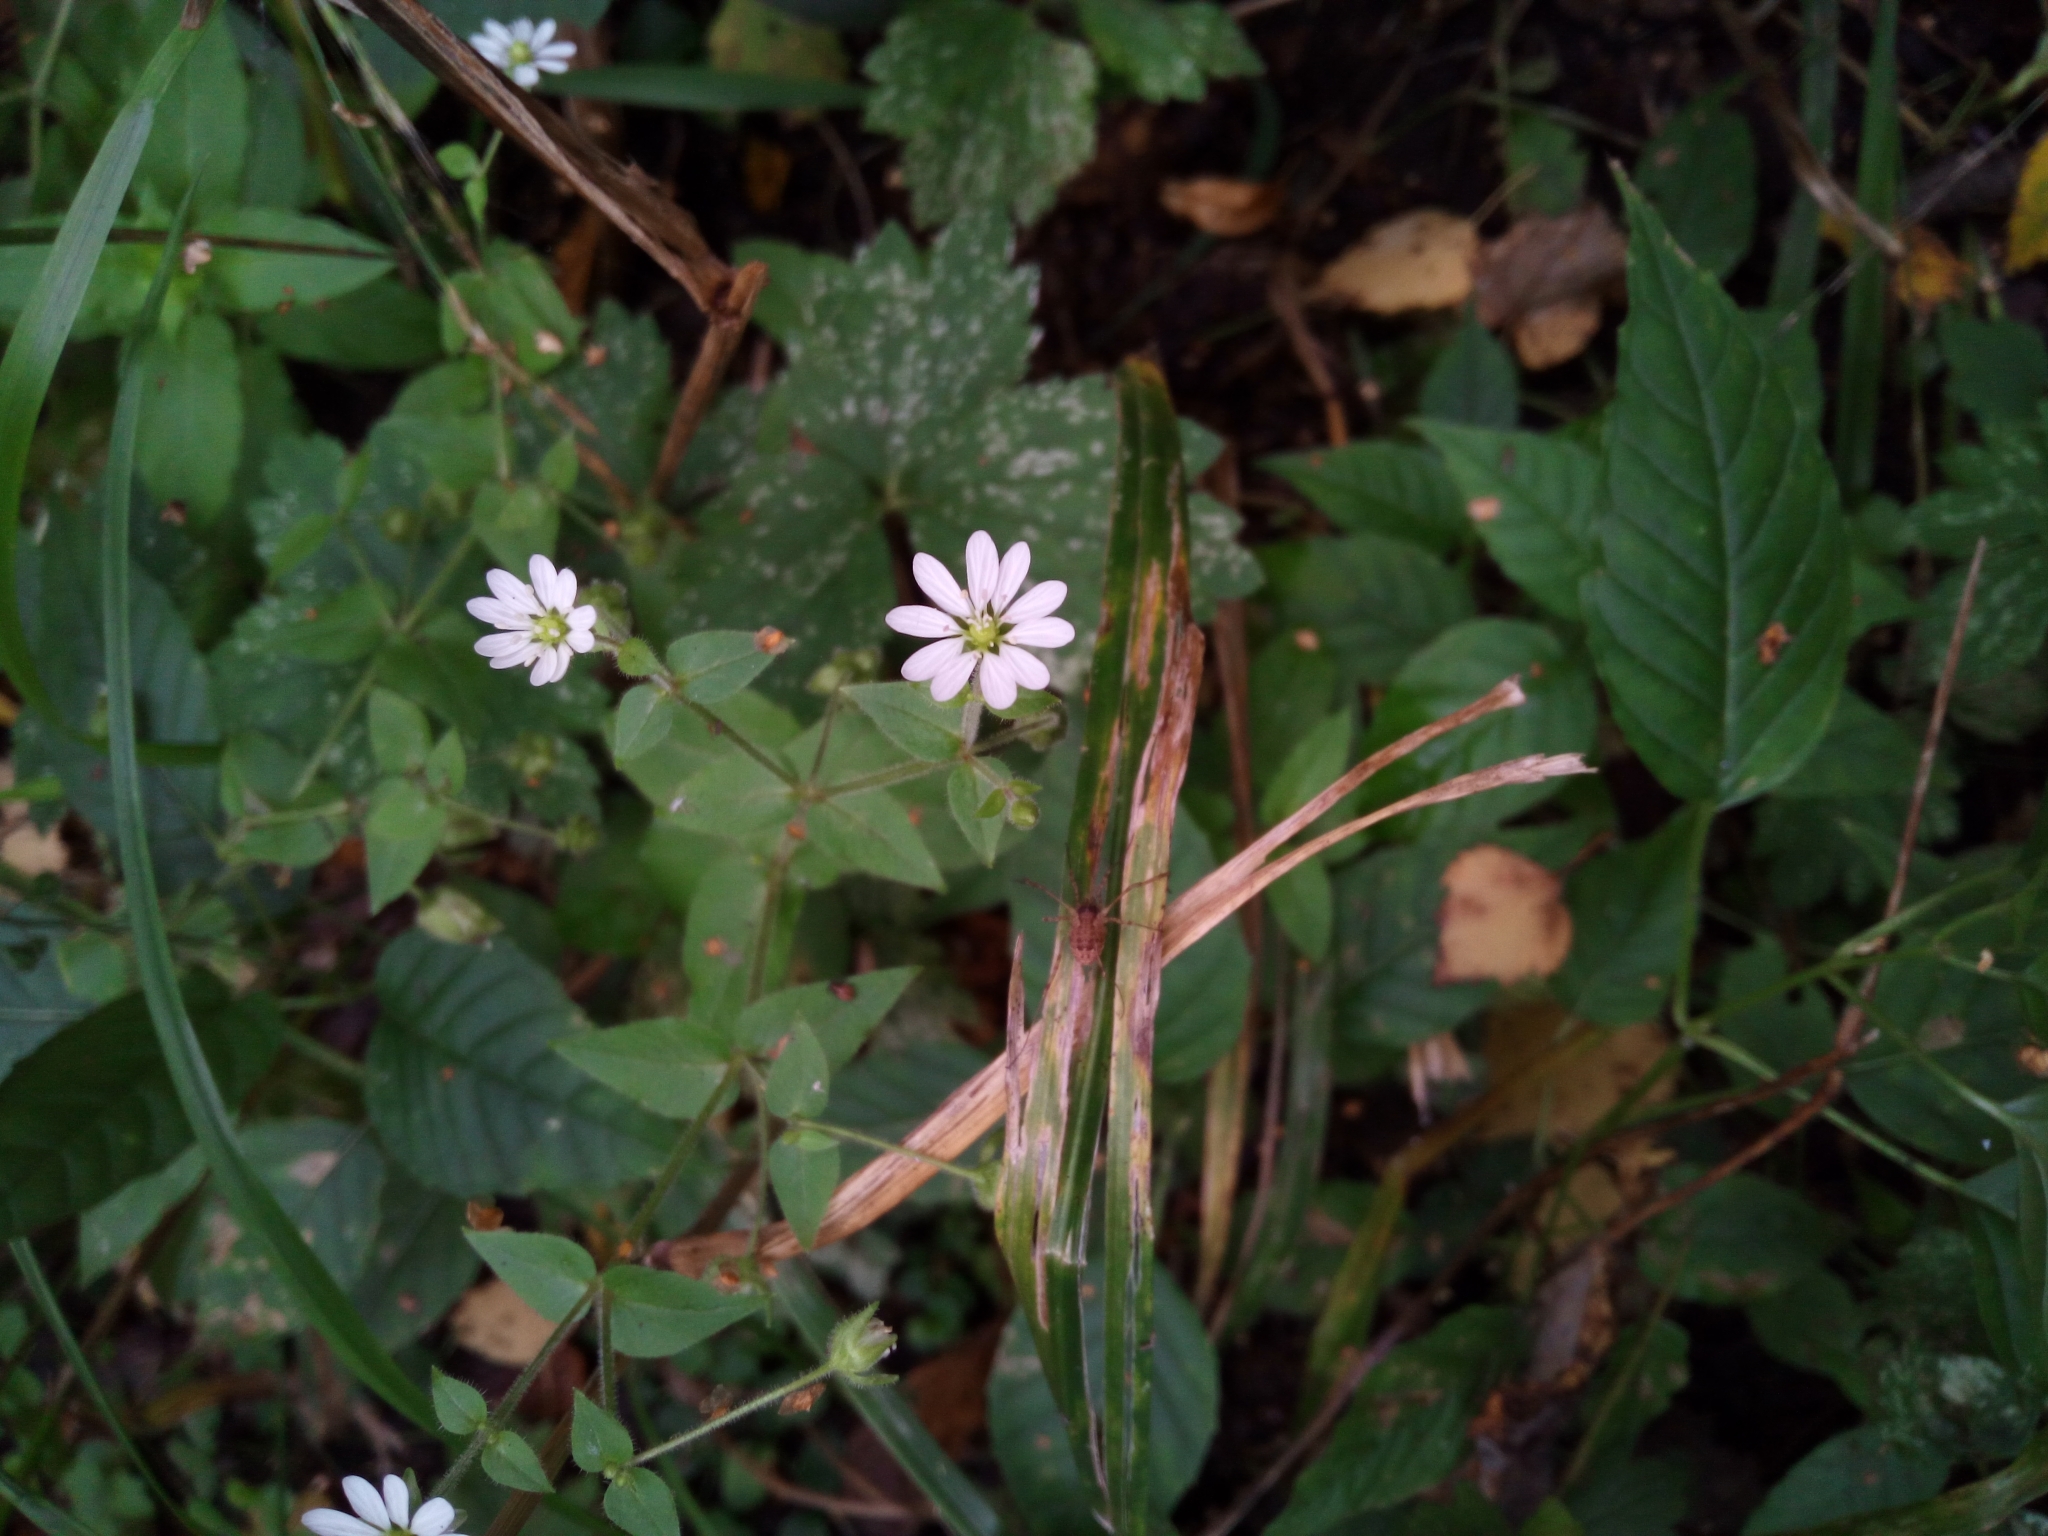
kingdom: Plantae
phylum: Tracheophyta
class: Magnoliopsida
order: Caryophyllales
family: Caryophyllaceae
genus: Stellaria
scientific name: Stellaria aquatica
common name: Water chickweed
